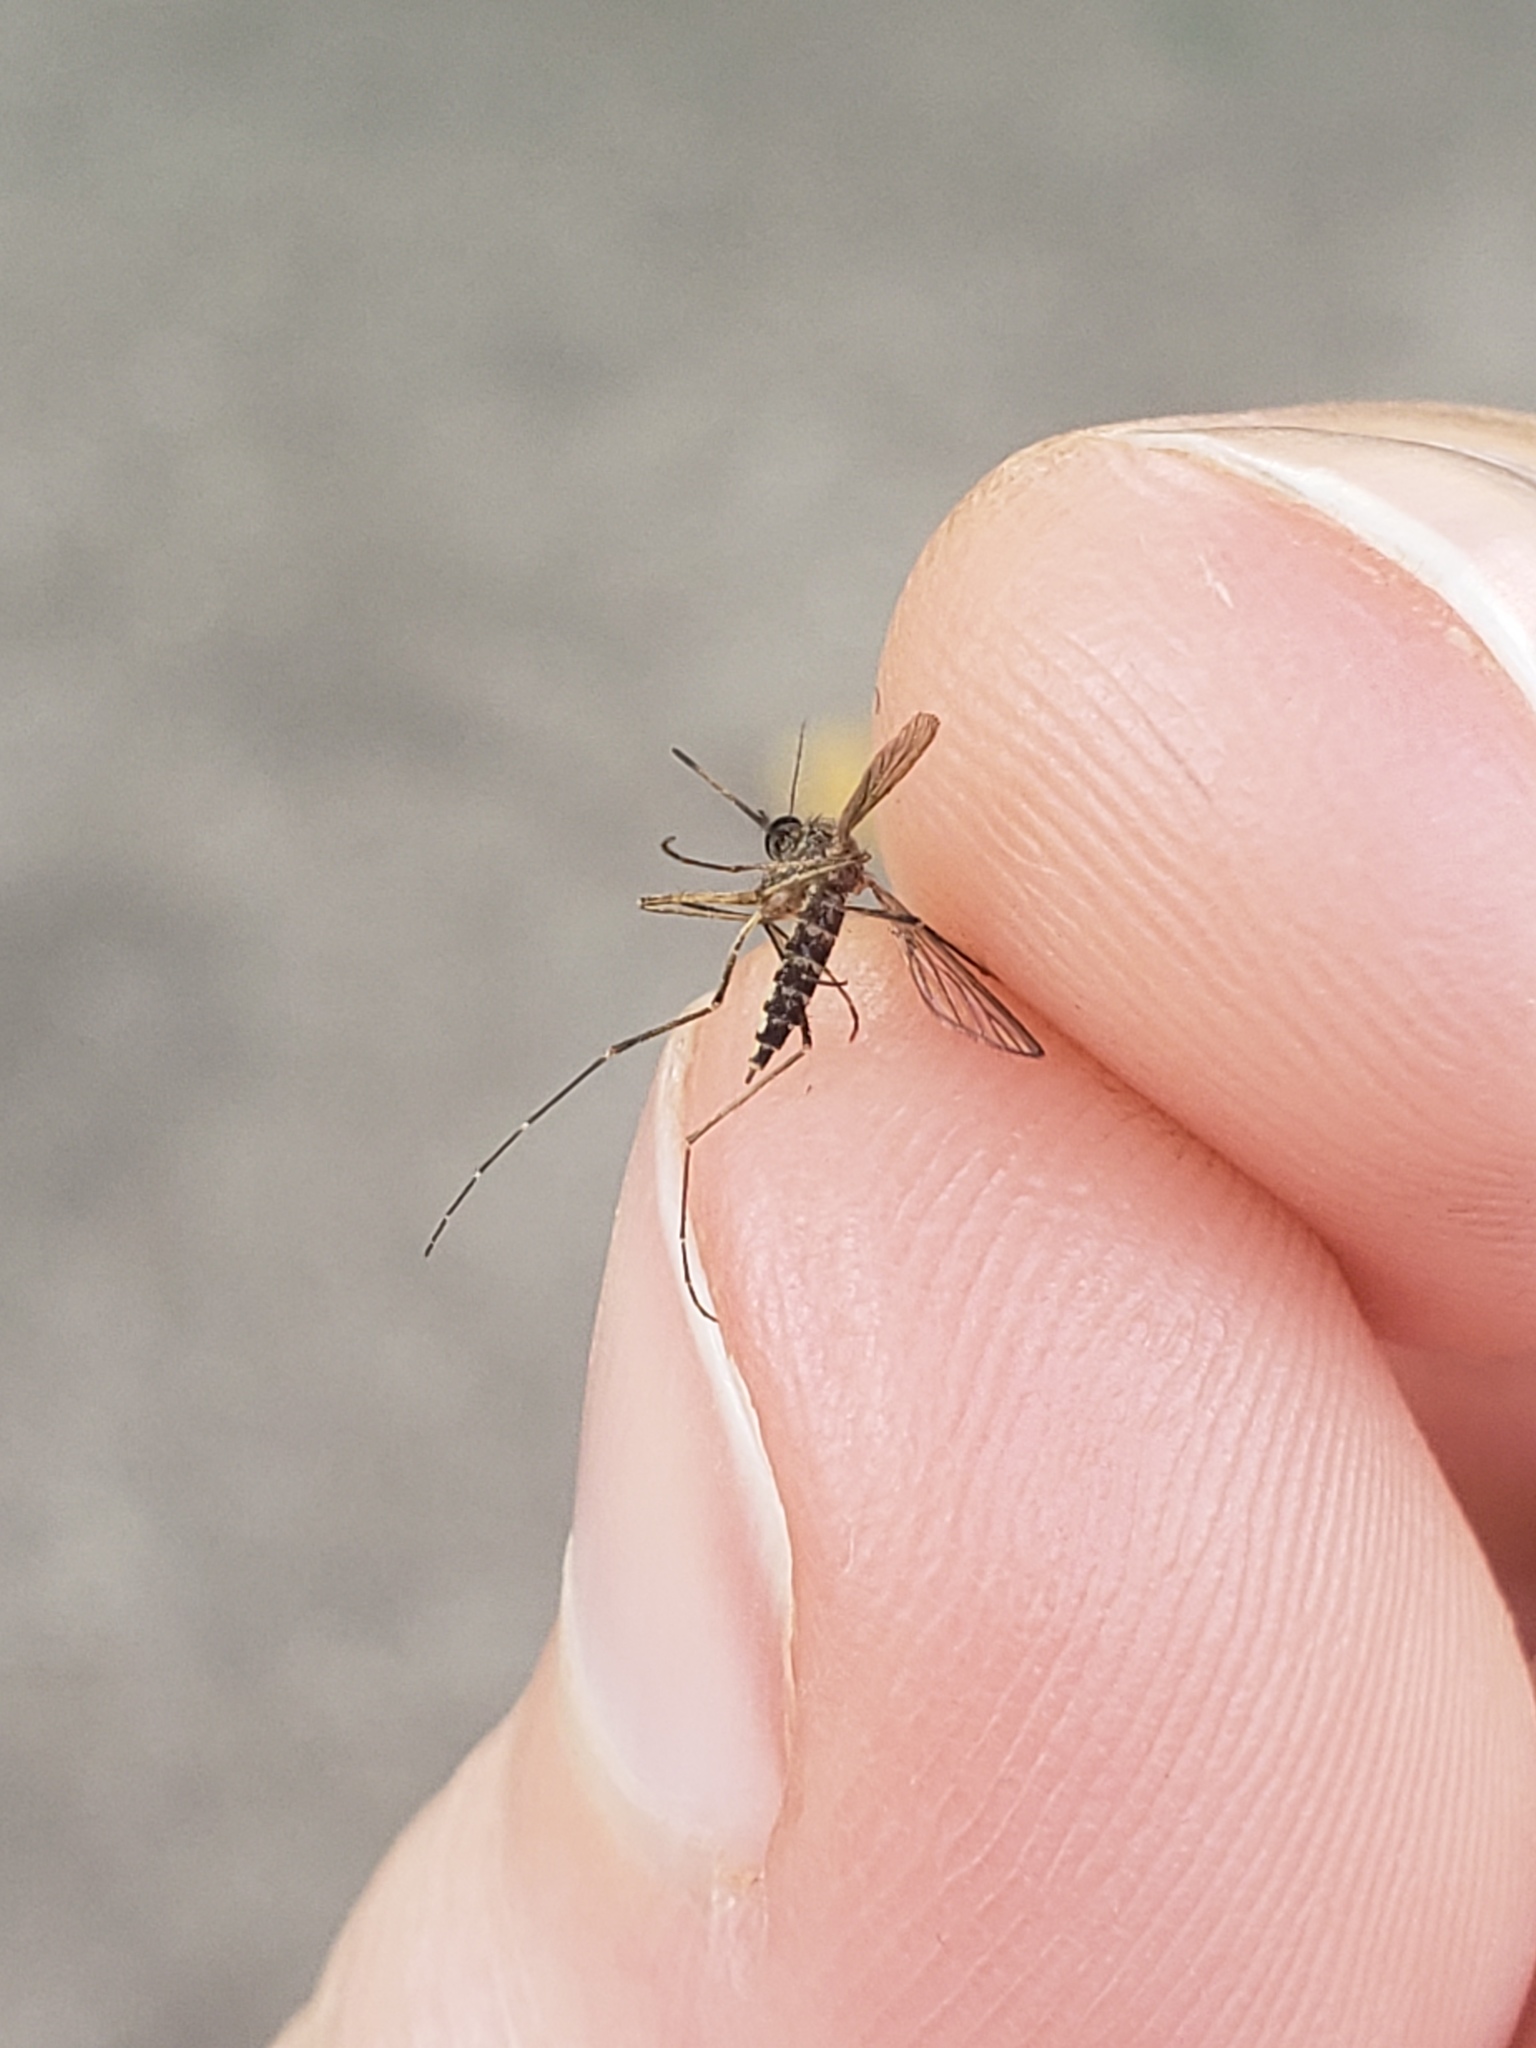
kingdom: Animalia
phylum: Arthropoda
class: Insecta
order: Diptera
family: Culicidae
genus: Aedes
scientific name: Aedes vexans
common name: Inland floodwater mosquito
